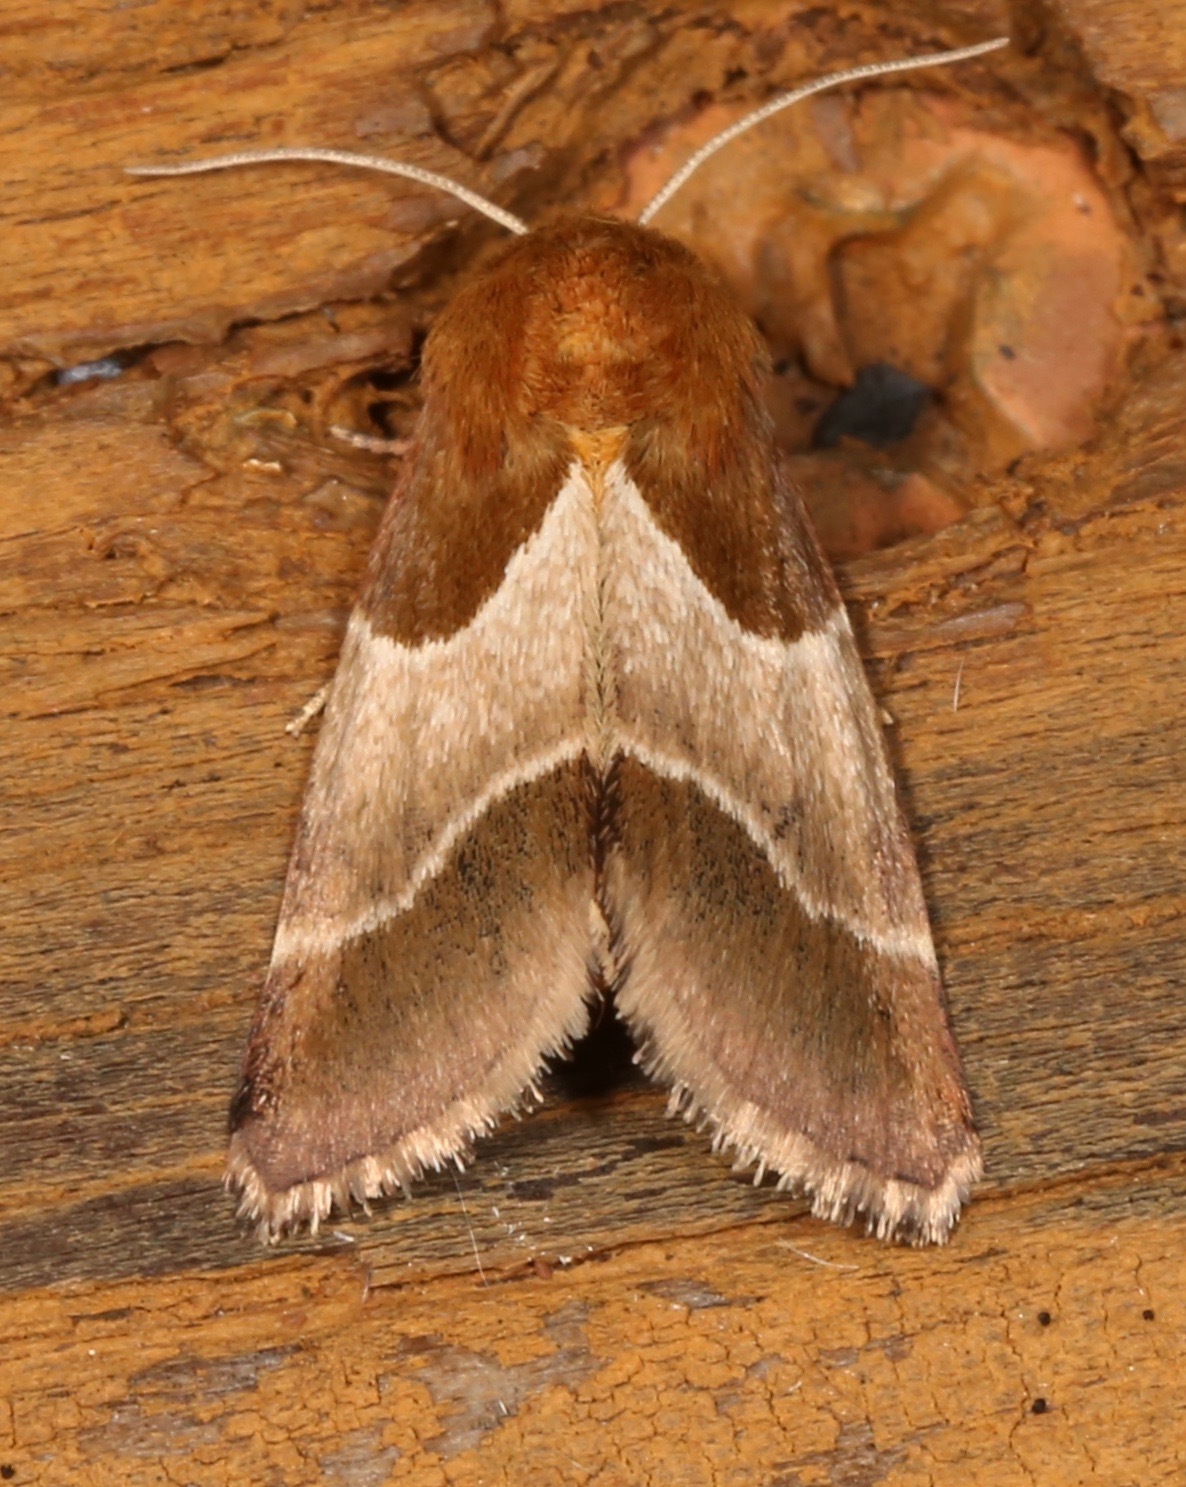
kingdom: Animalia
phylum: Arthropoda
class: Insecta
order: Lepidoptera
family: Noctuidae
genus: Schinia
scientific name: Schinia arcigera
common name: Arcigera flower moth
